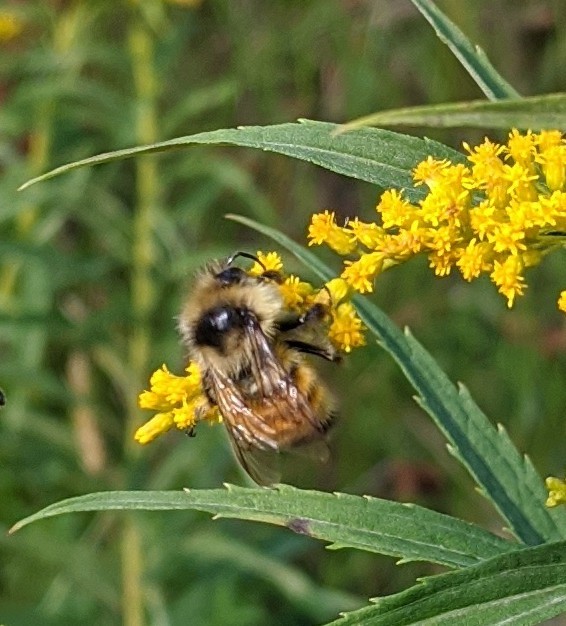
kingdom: Animalia
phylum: Arthropoda
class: Insecta
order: Hymenoptera
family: Apidae
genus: Bombus
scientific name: Bombus ternarius
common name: Tri-colored bumble bee
